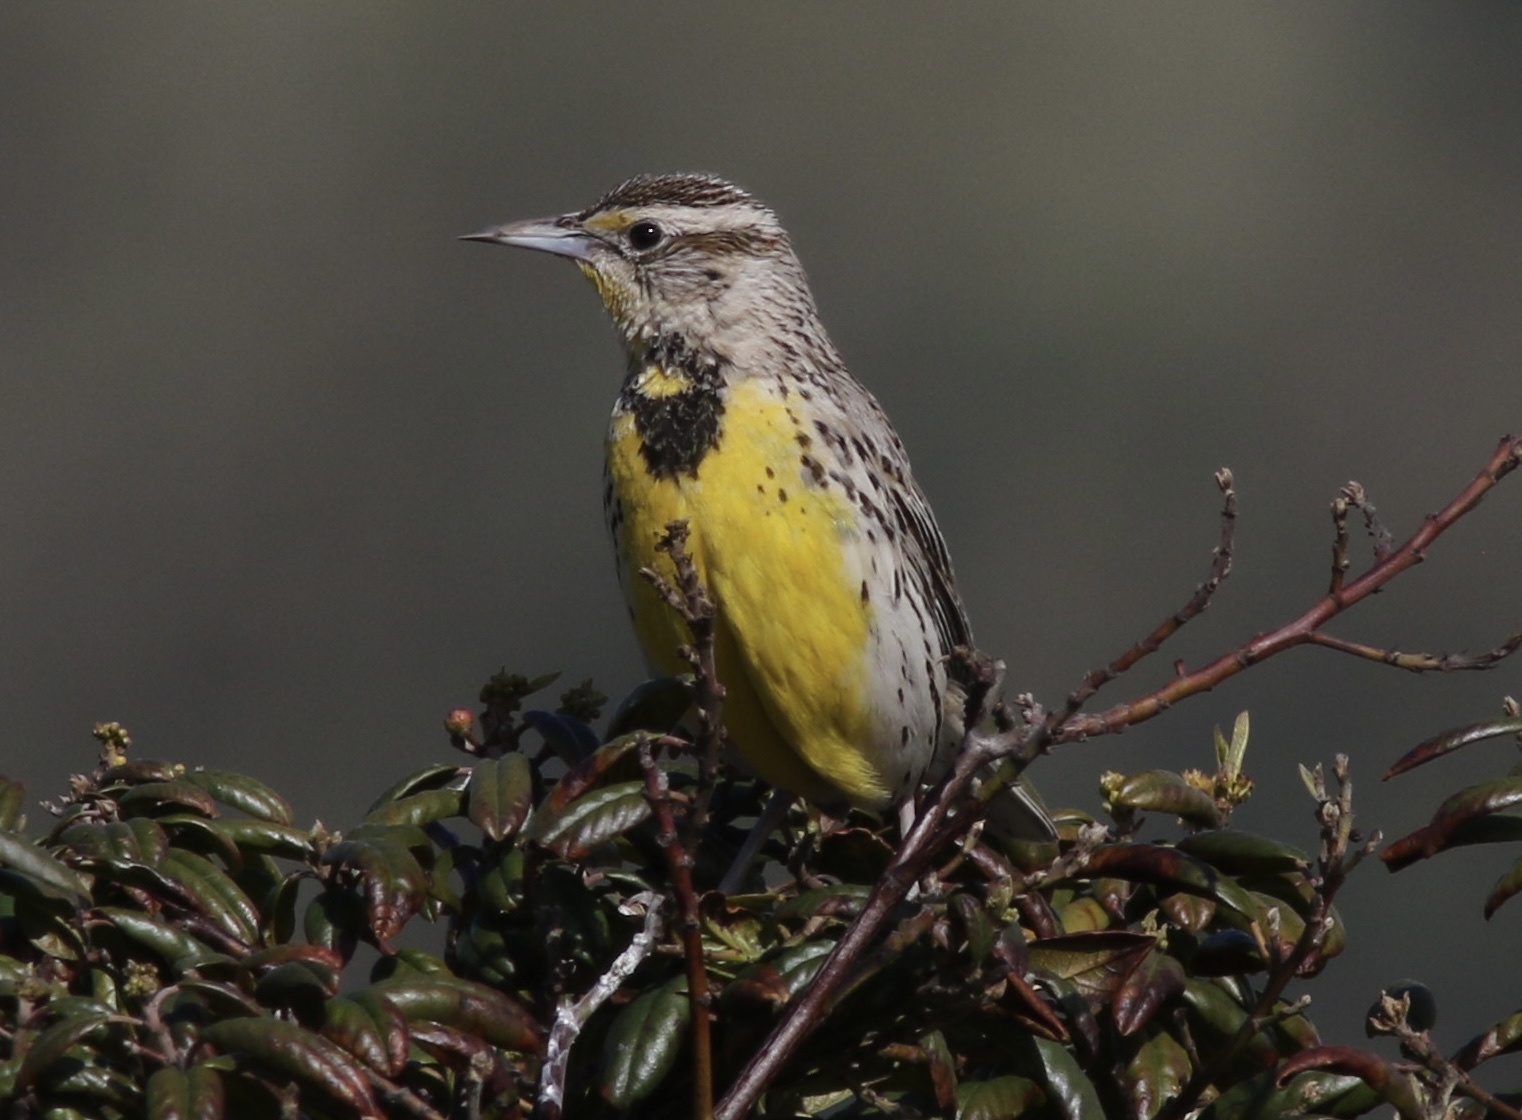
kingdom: Animalia
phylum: Chordata
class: Aves
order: Passeriformes
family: Icteridae
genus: Sturnella
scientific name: Sturnella neglecta
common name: Western meadowlark
